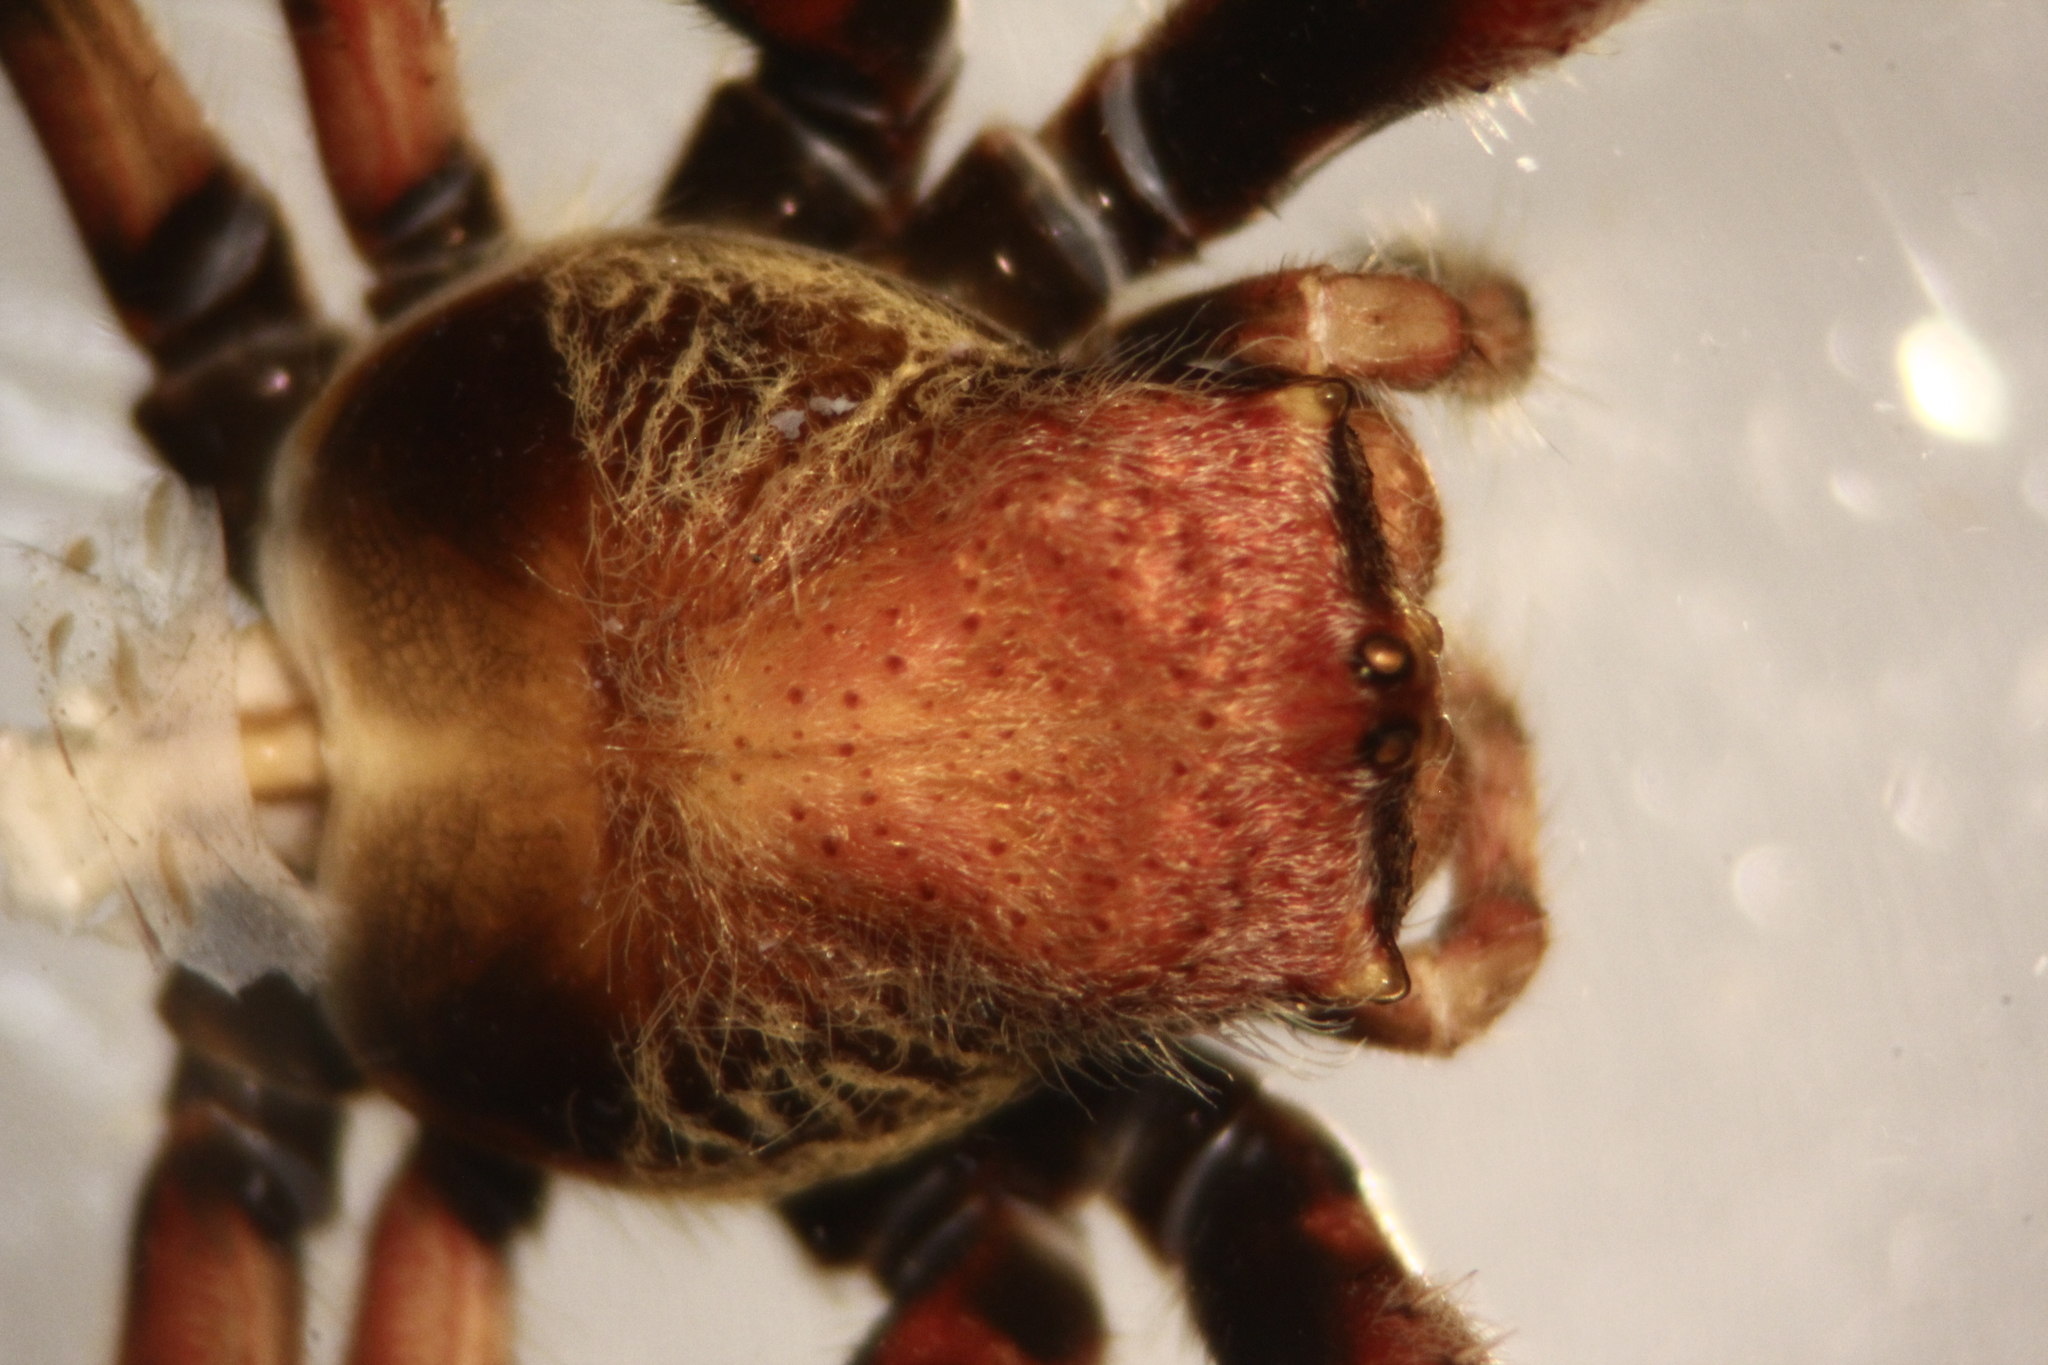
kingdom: Animalia
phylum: Arthropoda
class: Arachnida
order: Araneae
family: Araneidae
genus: Parawixia
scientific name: Parawixia dehaani
